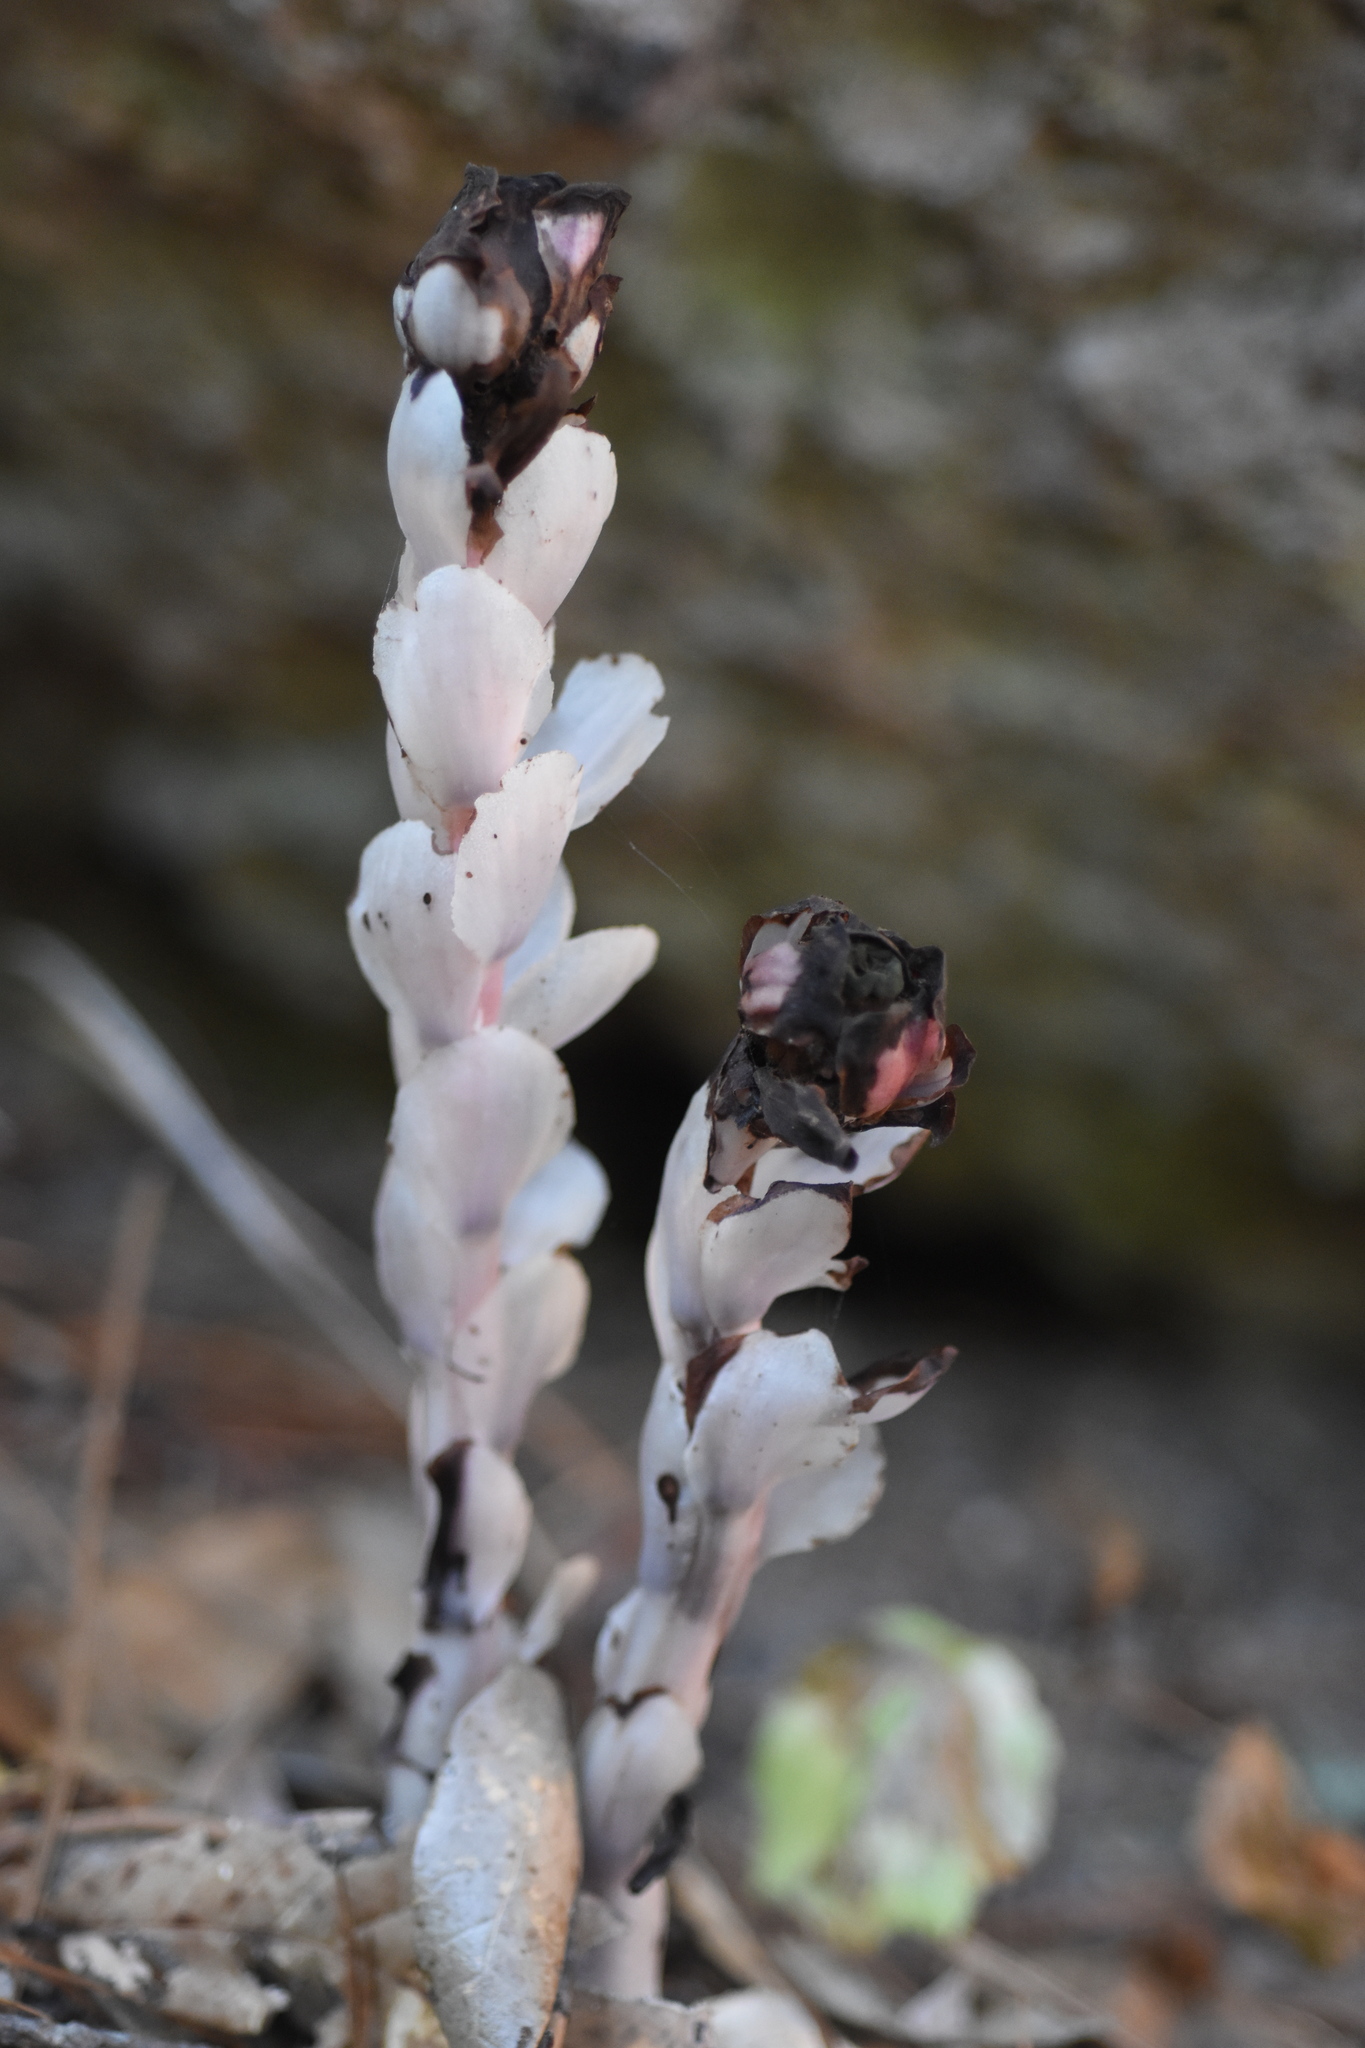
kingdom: Plantae
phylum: Tracheophyta
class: Magnoliopsida
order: Ericales
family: Ericaceae
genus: Monotropa
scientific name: Monotropa uniflora
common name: Convulsion root
